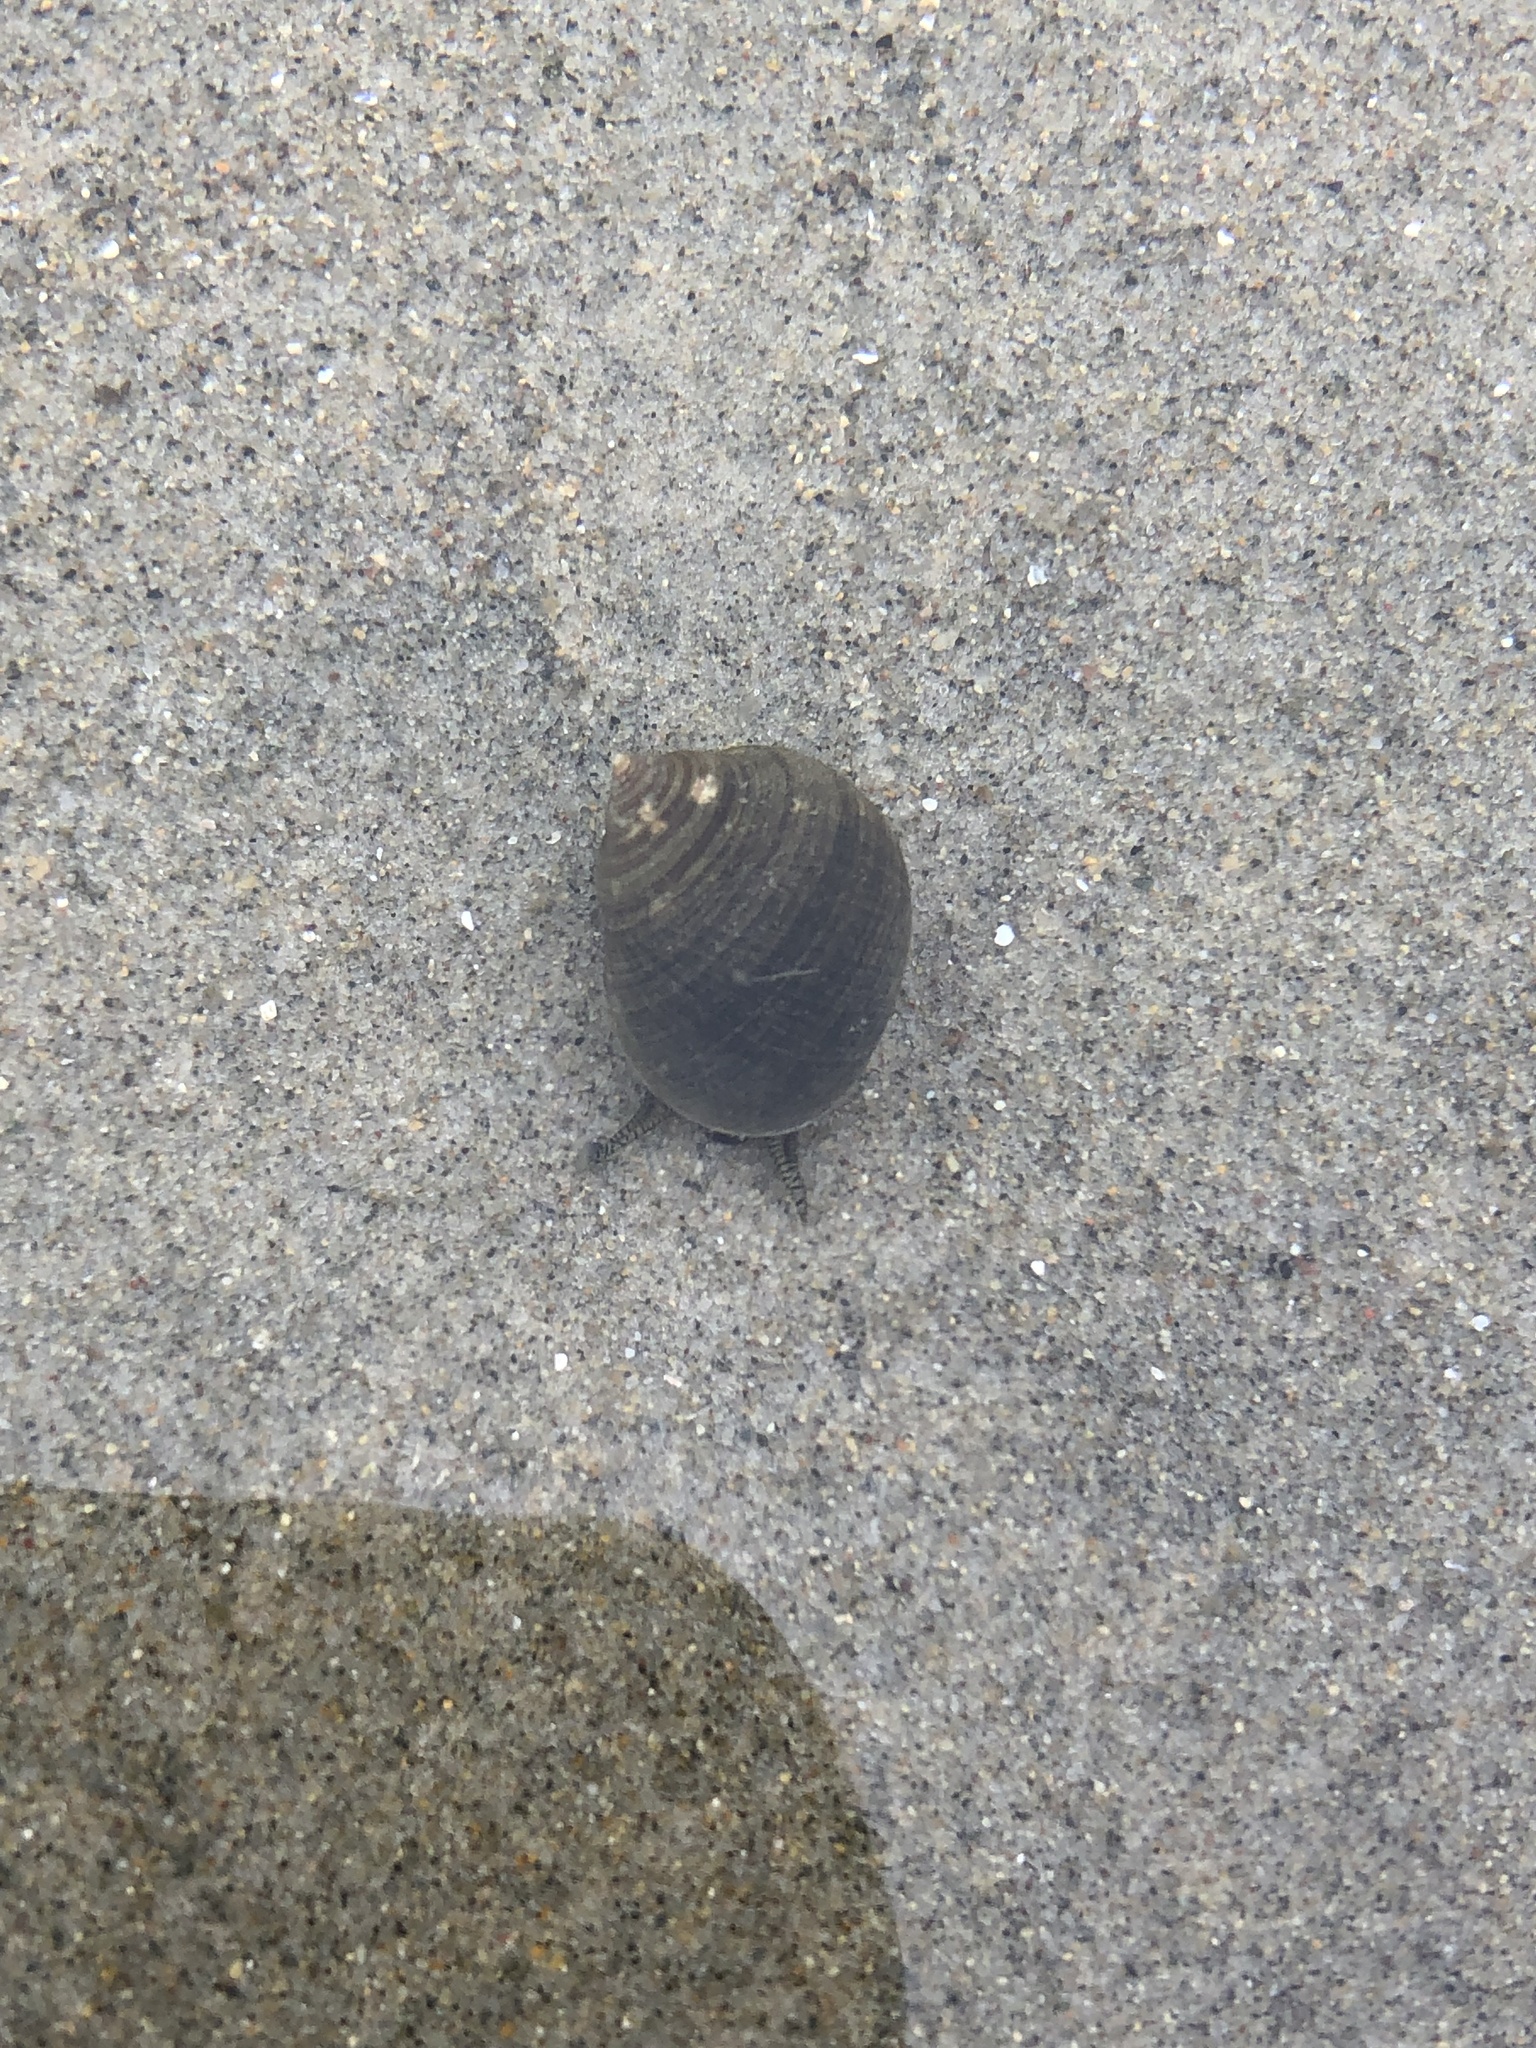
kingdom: Animalia
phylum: Mollusca
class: Gastropoda
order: Littorinimorpha
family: Littorinidae
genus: Littorina
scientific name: Littorina littorea
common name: Common periwinkle
